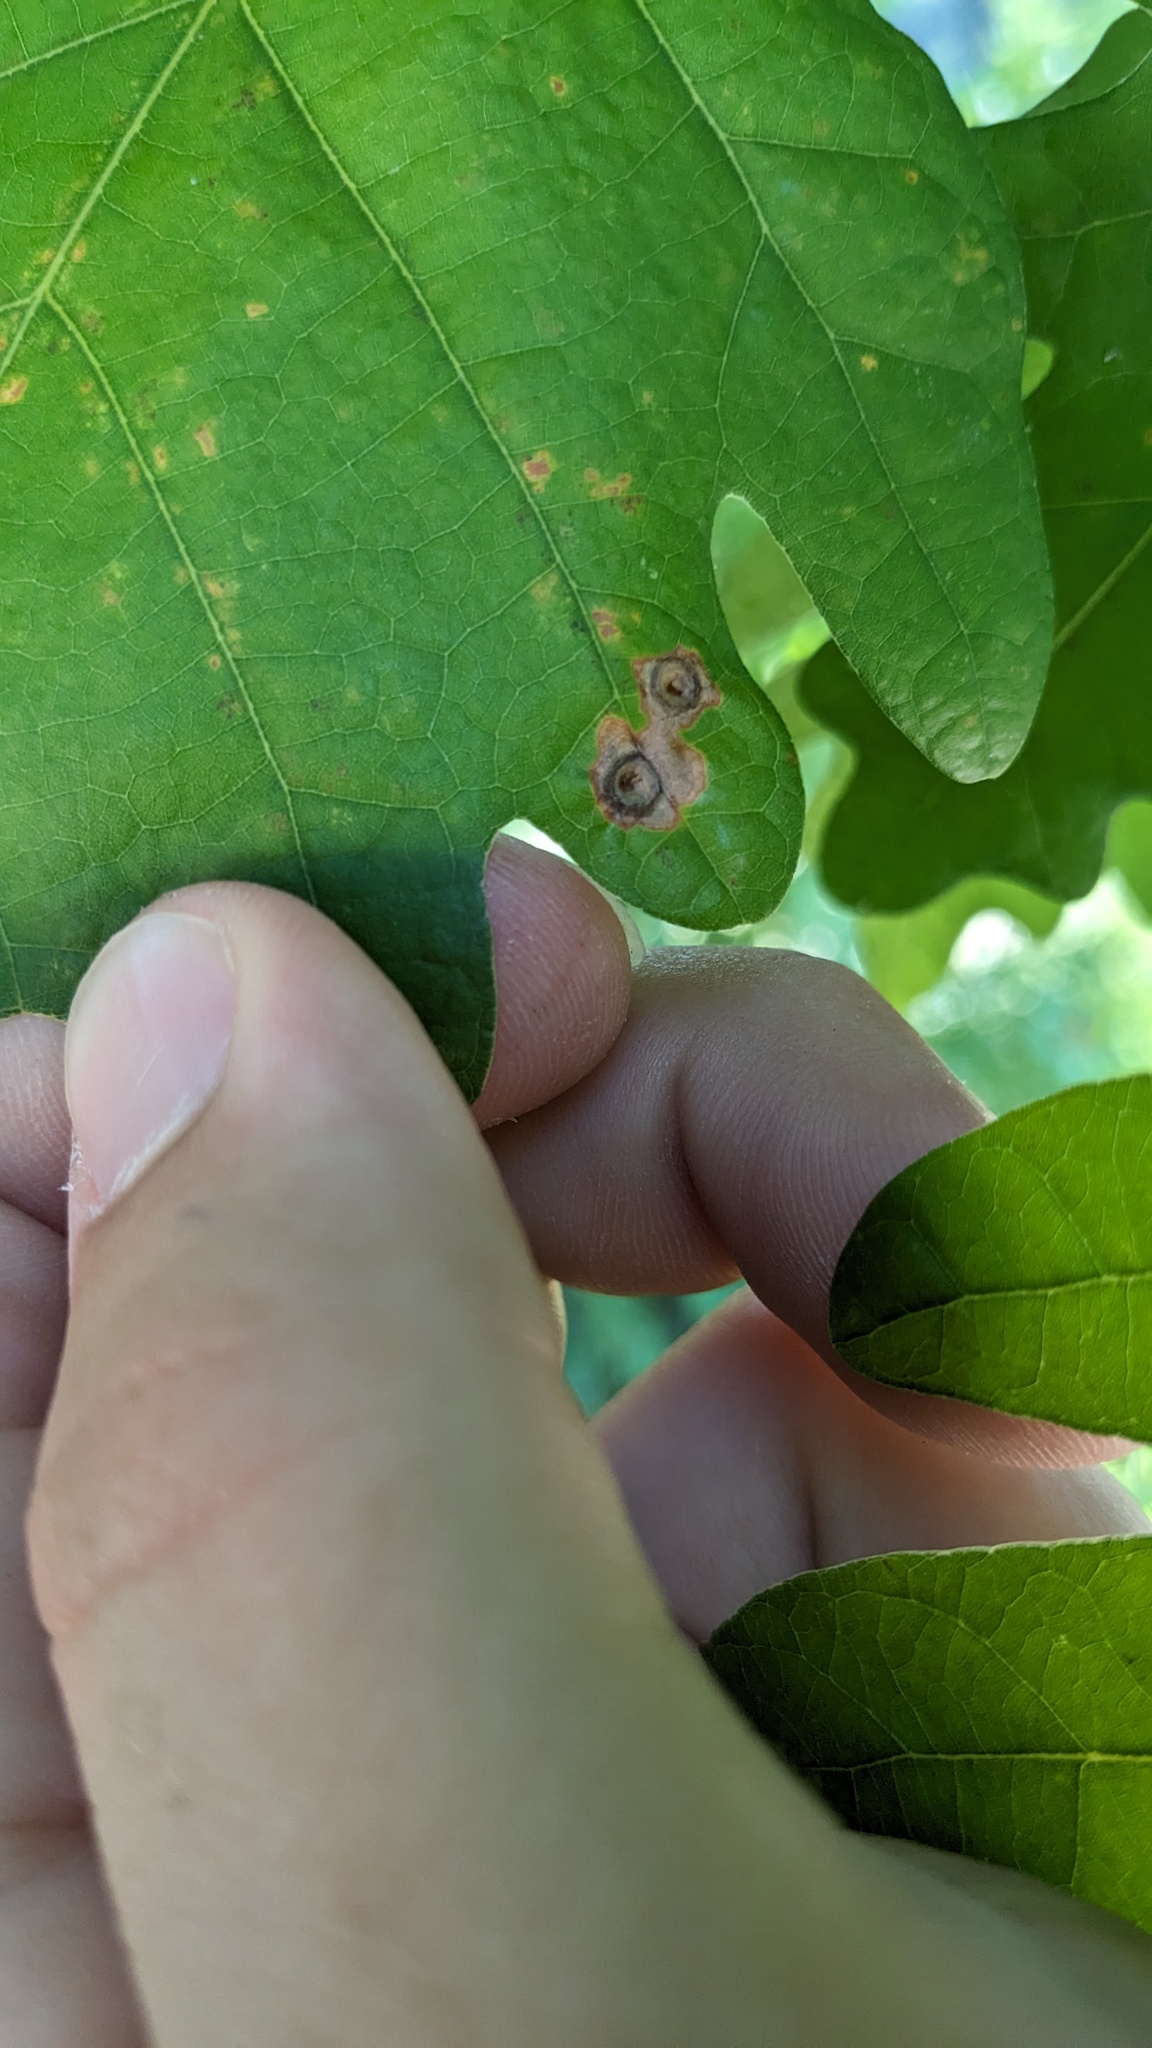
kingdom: Animalia
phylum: Arthropoda
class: Insecta
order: Hymenoptera
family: Cynipidae
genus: Callirhytis
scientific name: Callirhytis
